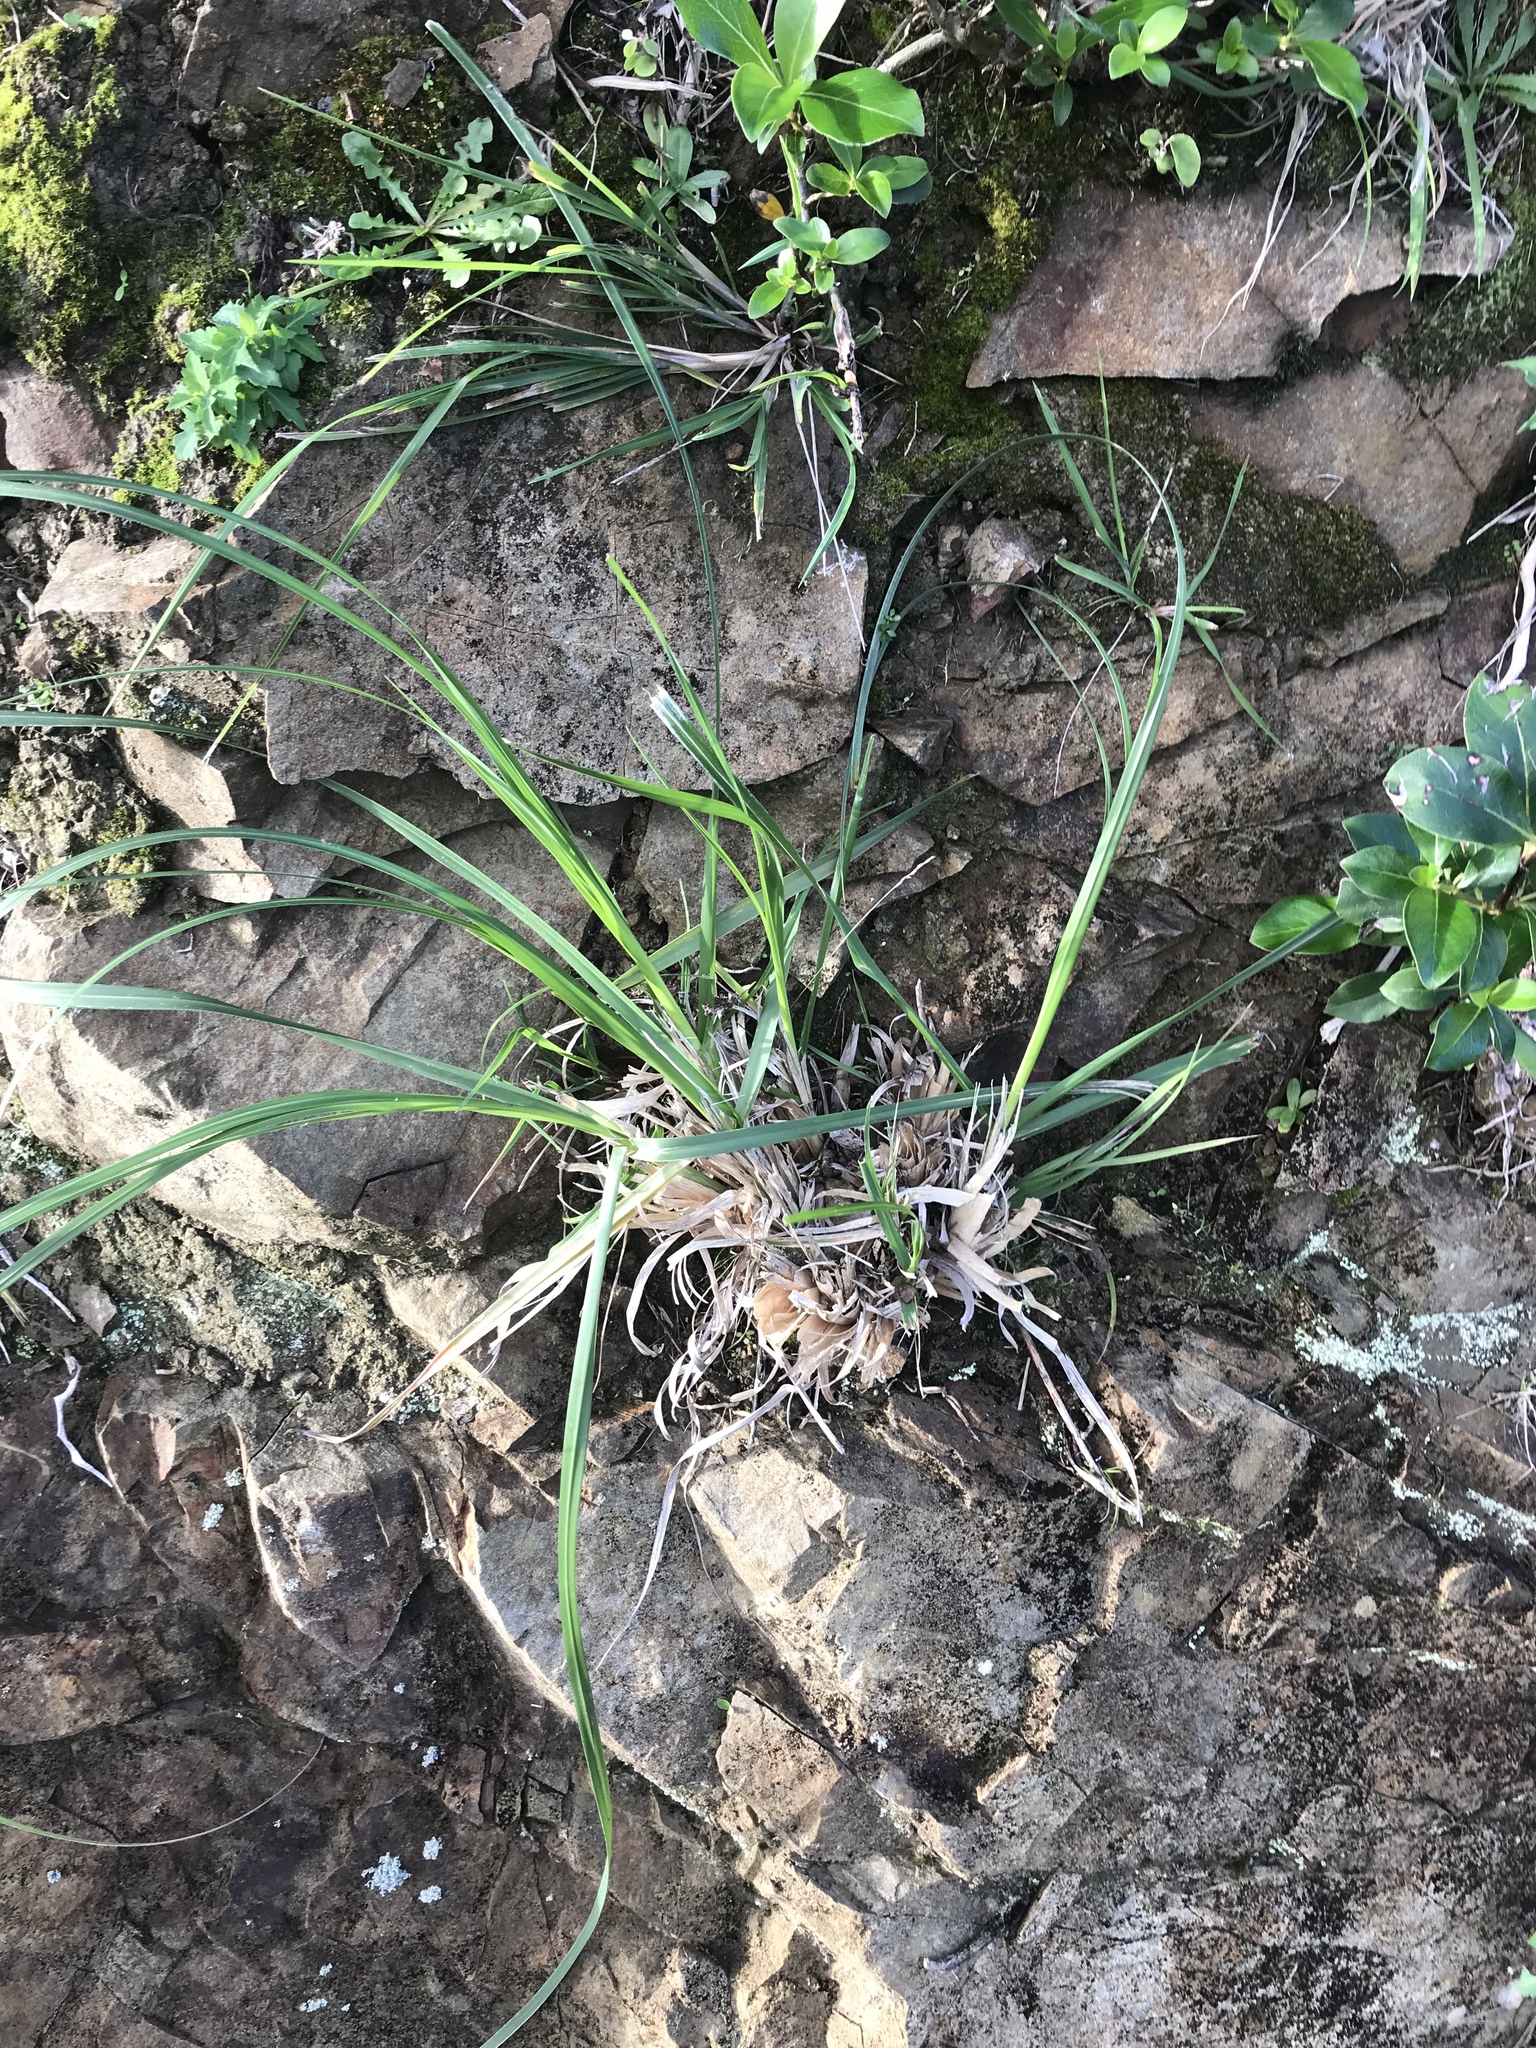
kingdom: Plantae
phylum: Tracheophyta
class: Liliopsida
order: Poales
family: Poaceae
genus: Cortaderia
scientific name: Cortaderia selloana
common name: Uruguayan pampas grass
